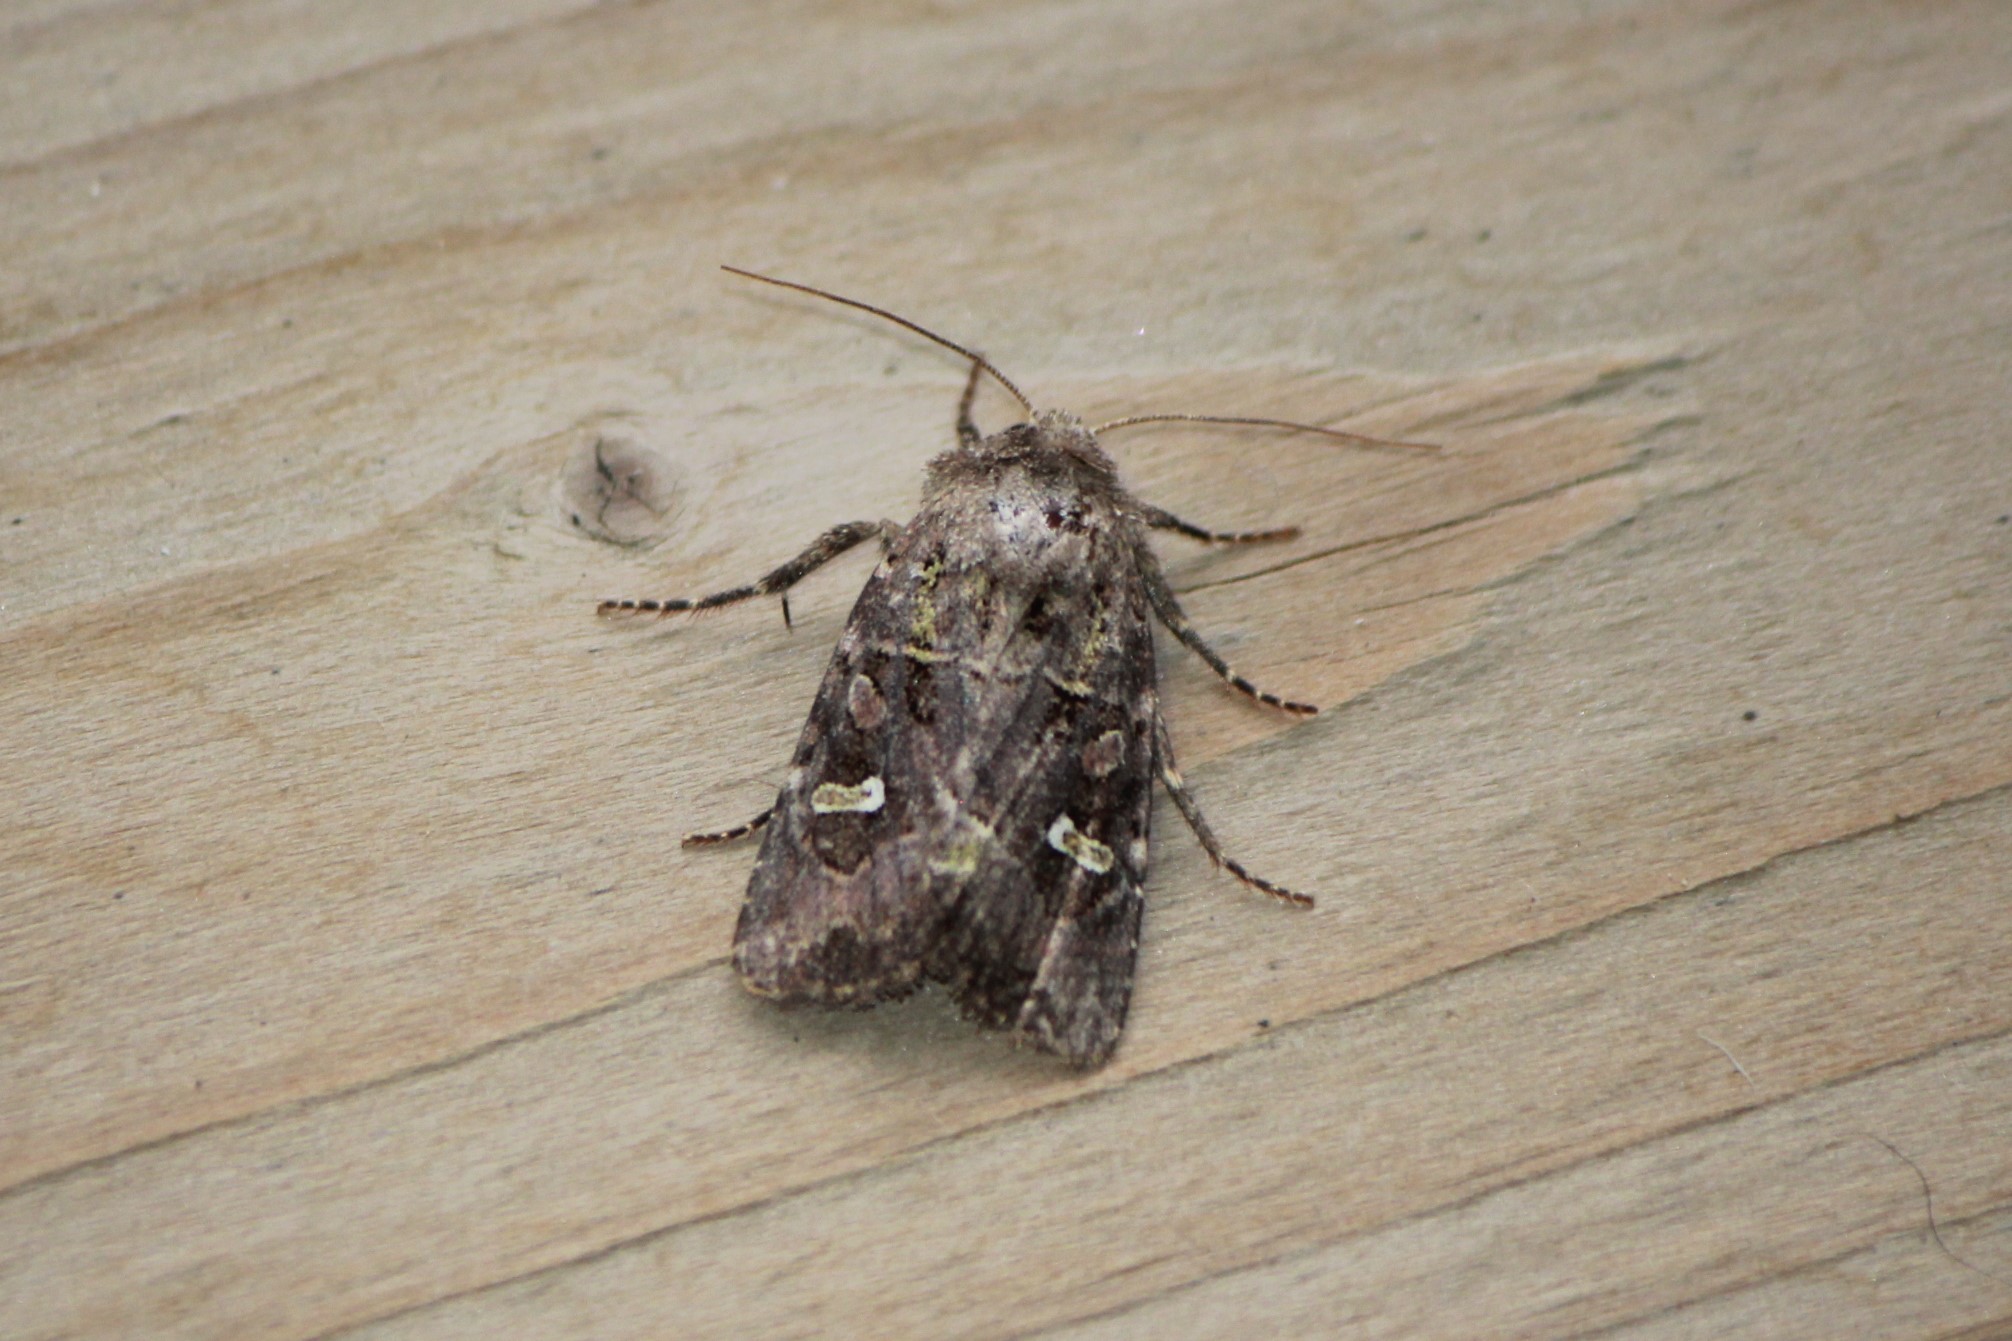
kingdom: Animalia
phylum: Arthropoda
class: Insecta
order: Lepidoptera
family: Noctuidae
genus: Lacinipolia
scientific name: Lacinipolia renigera
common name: Kidney-spotted minor
